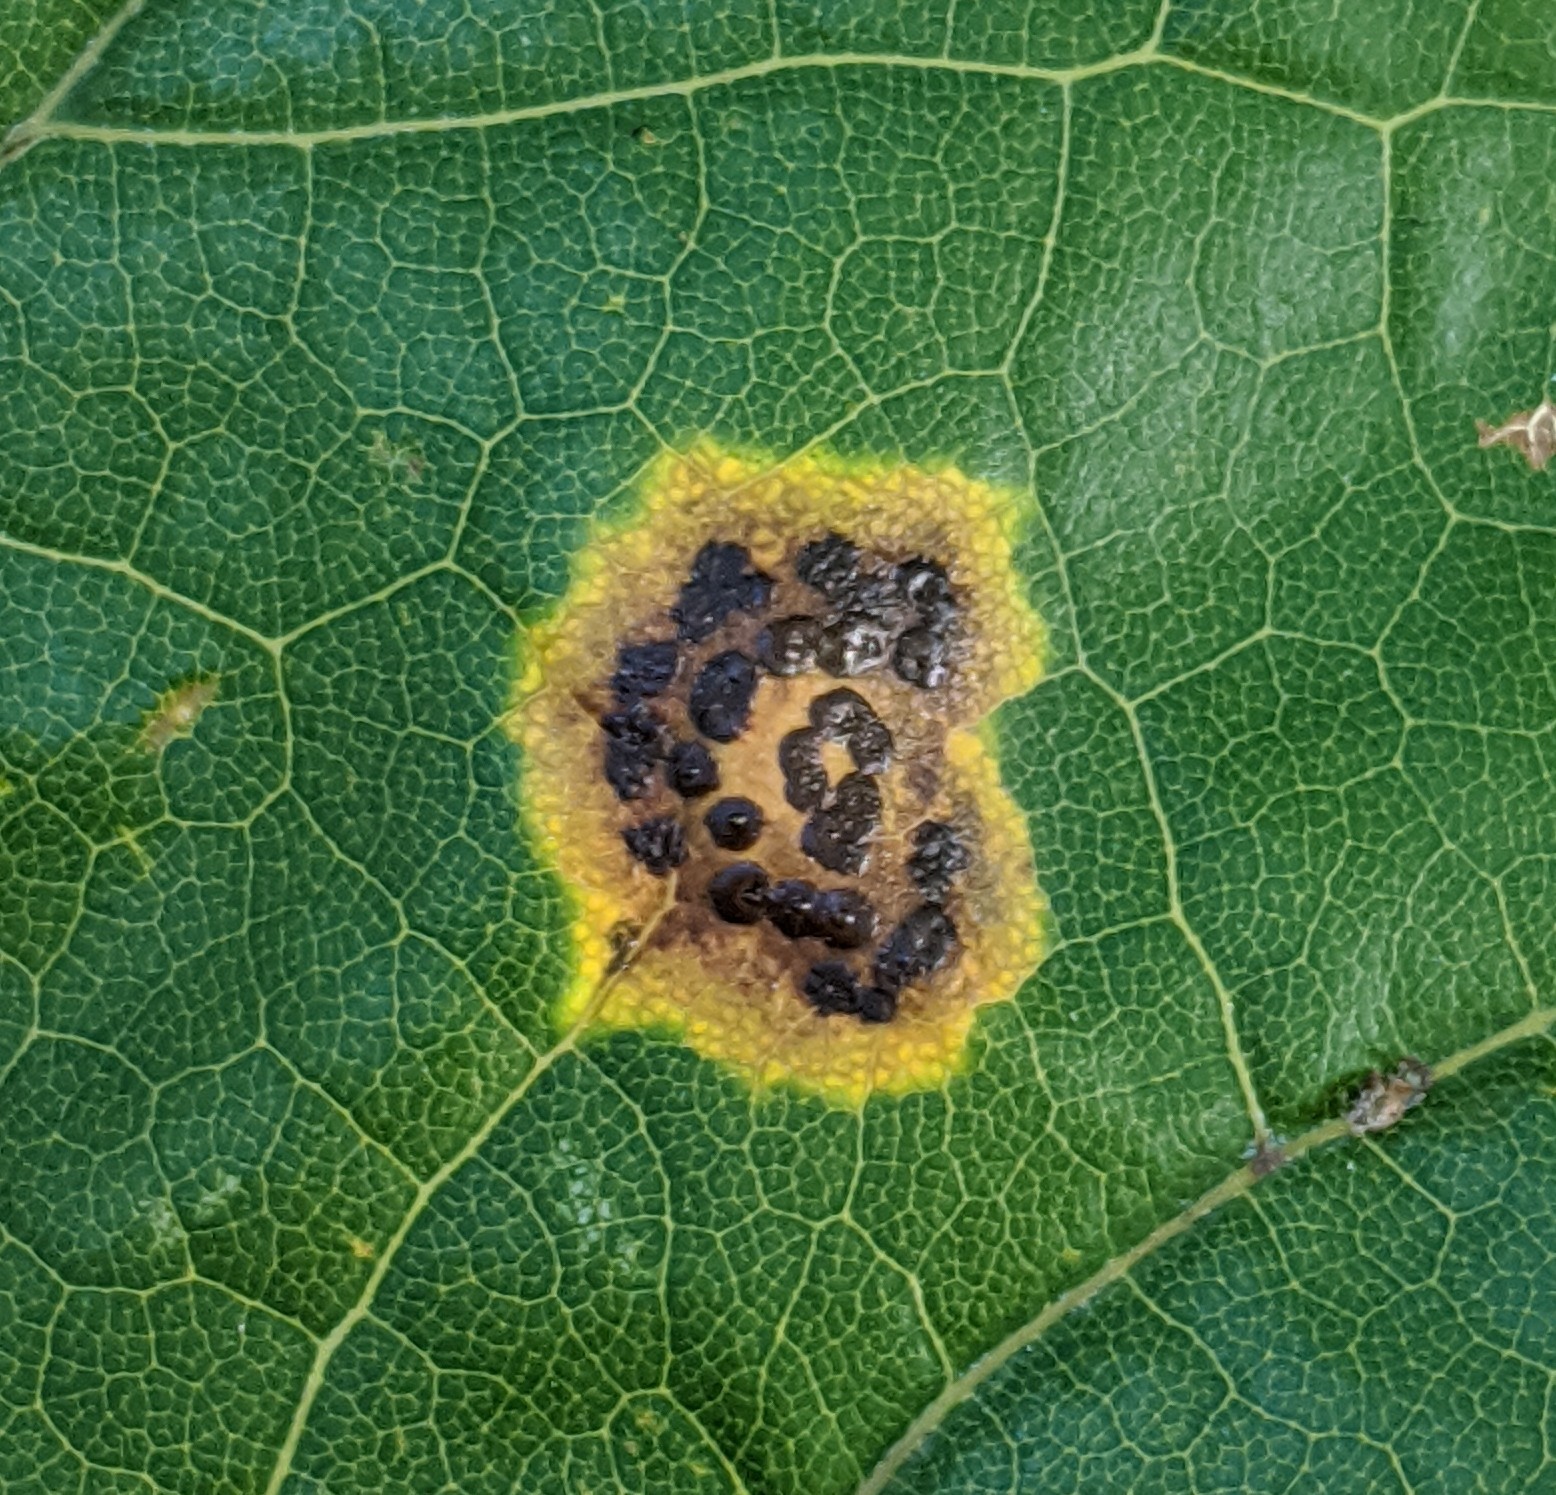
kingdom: Fungi
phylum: Ascomycota
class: Leotiomycetes
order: Rhytismatales
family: Rhytismataceae
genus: Rhytisma
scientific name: Rhytisma acerinum
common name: European tar spot
